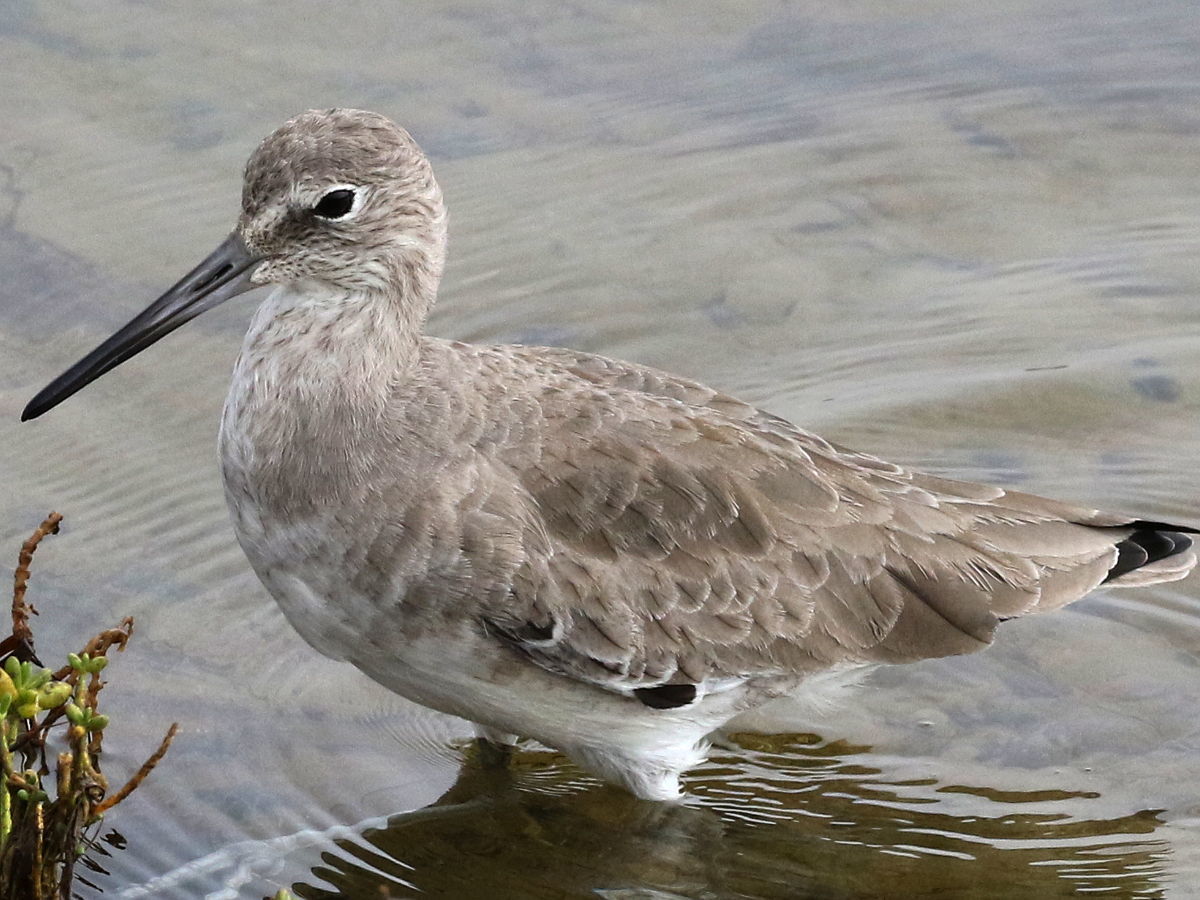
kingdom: Animalia
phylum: Chordata
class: Aves
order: Charadriiformes
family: Scolopacidae
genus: Tringa
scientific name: Tringa semipalmata
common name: Willet
